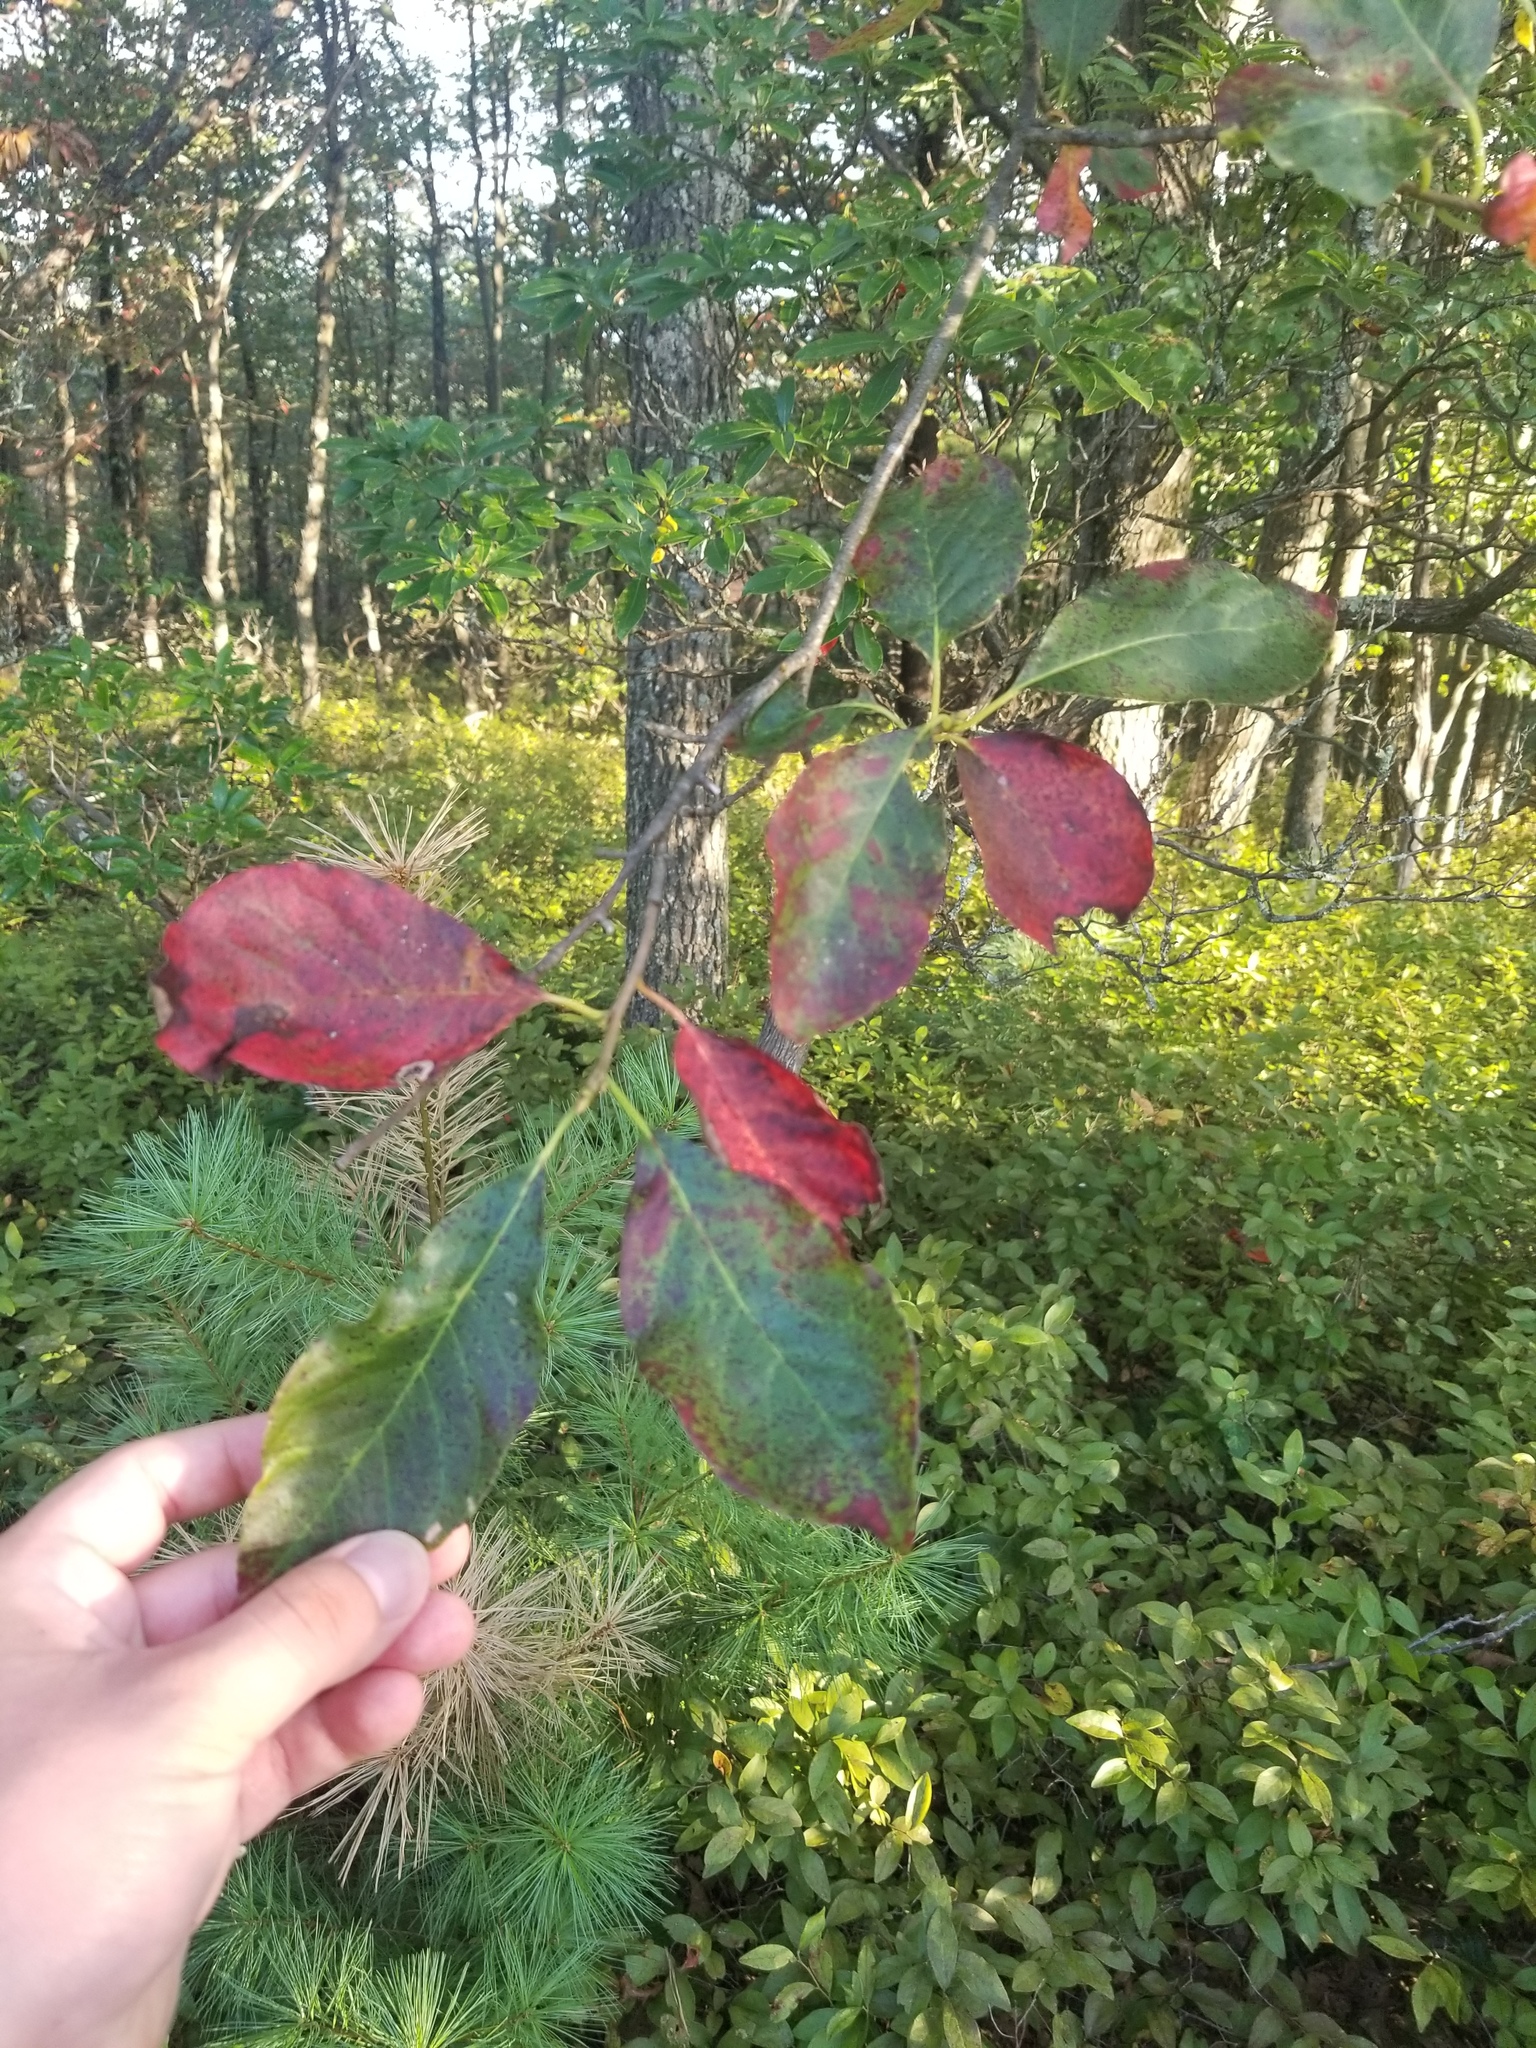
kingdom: Plantae
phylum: Tracheophyta
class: Magnoliopsida
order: Cornales
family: Nyssaceae
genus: Nyssa
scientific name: Nyssa sylvatica
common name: Black tupelo
